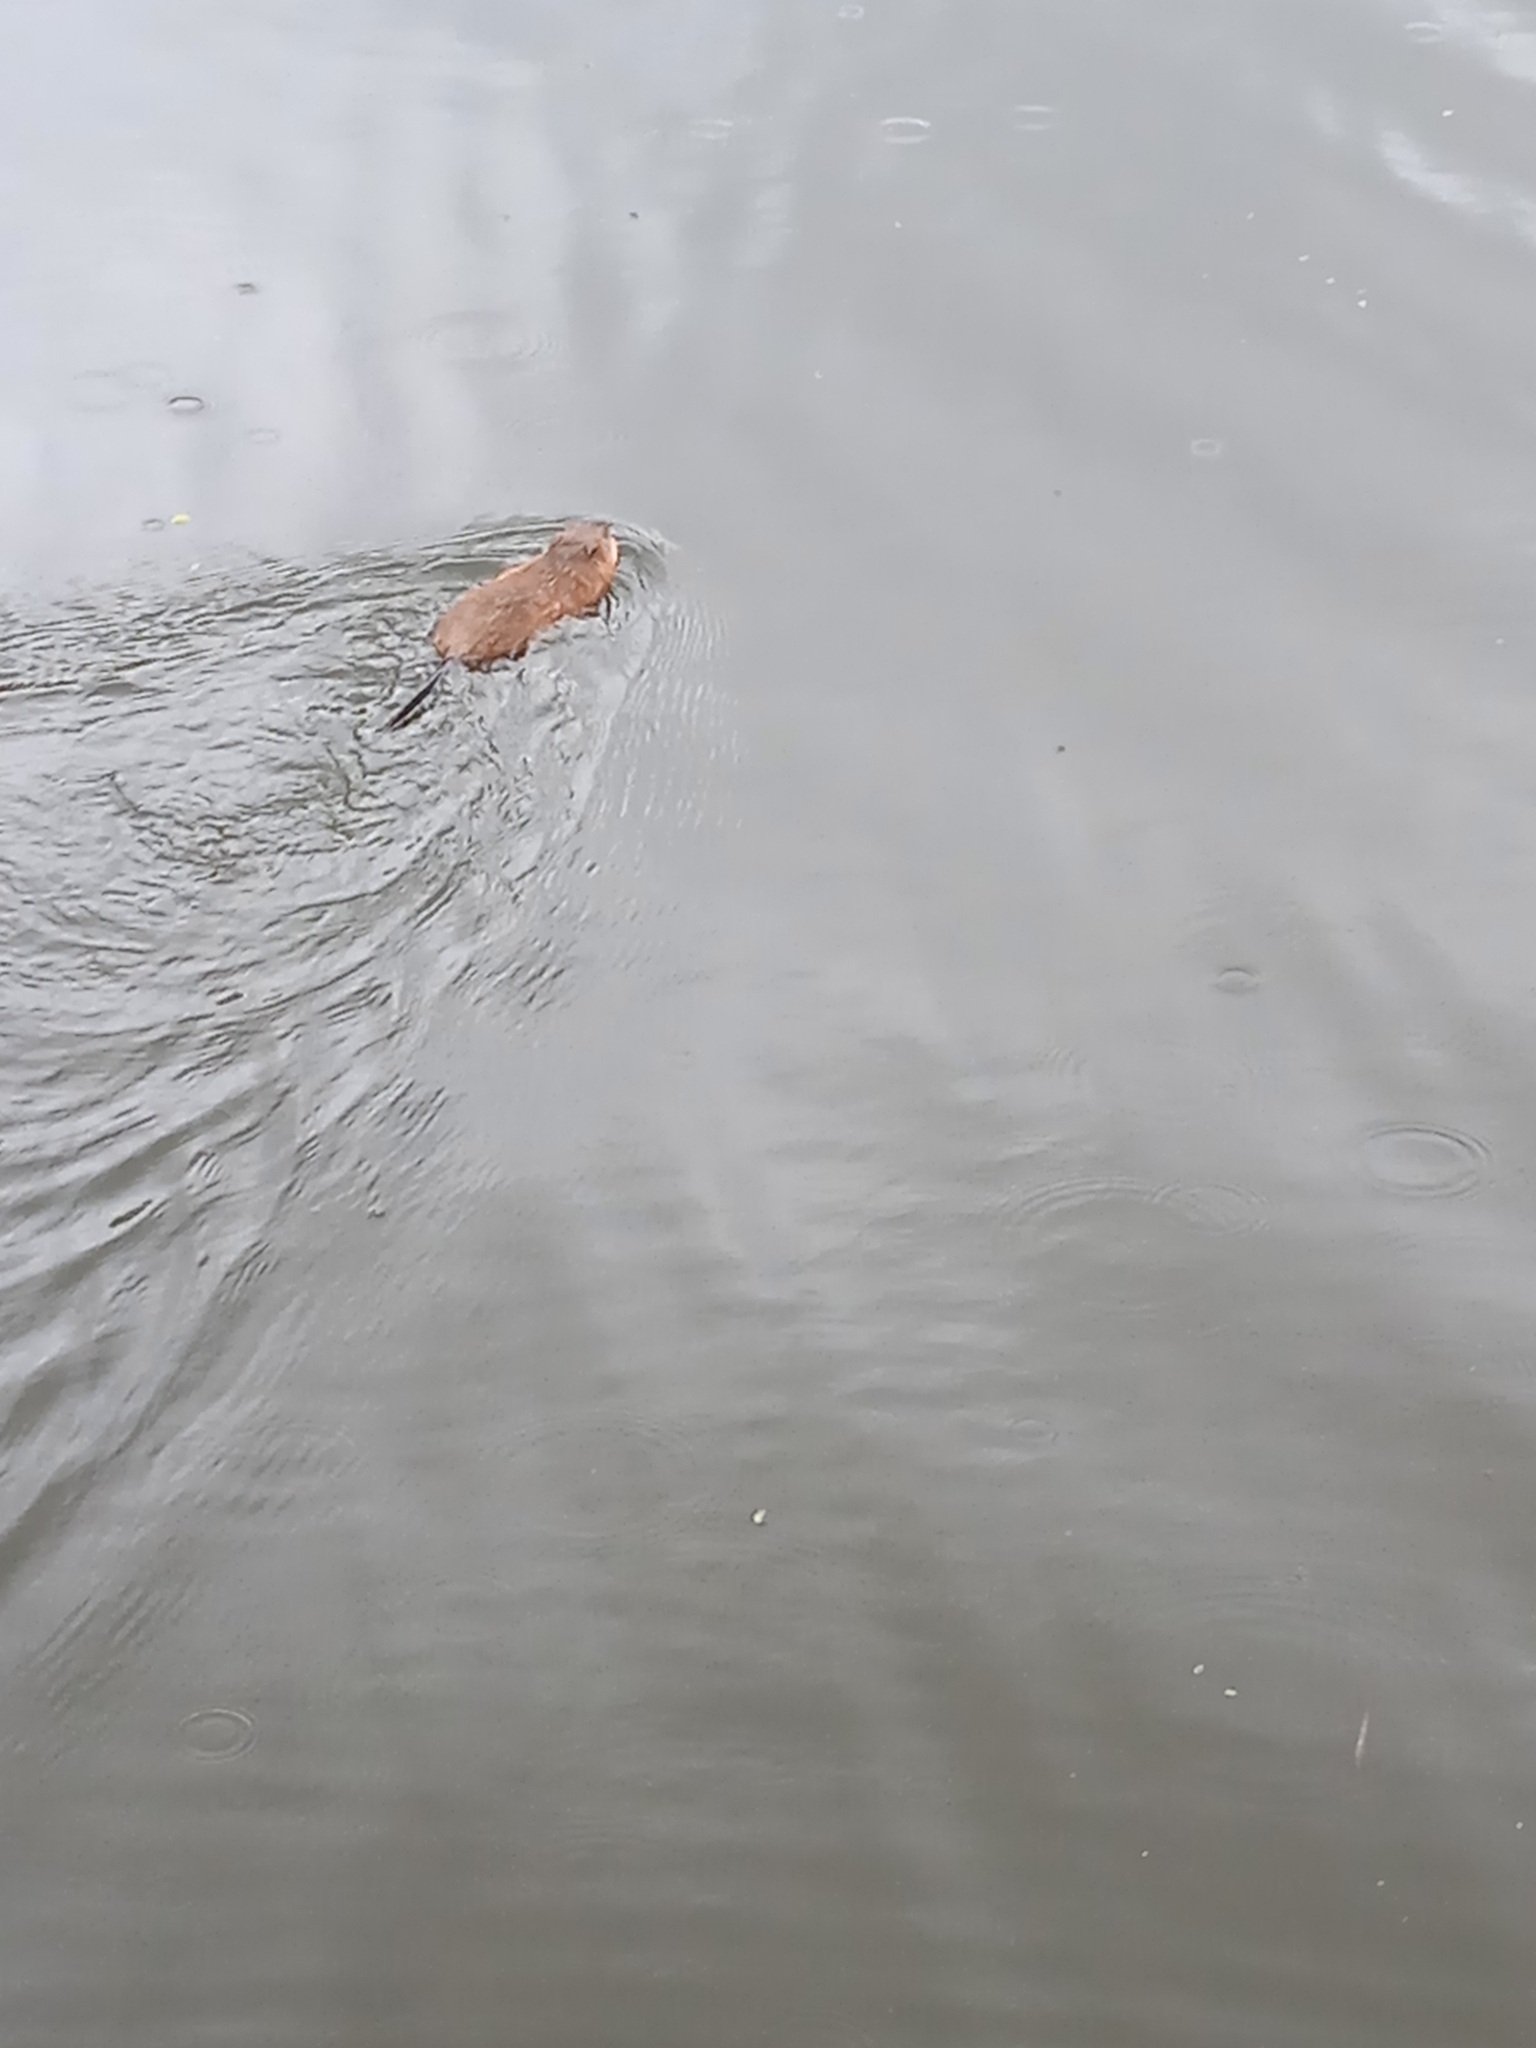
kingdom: Animalia
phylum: Chordata
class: Mammalia
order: Rodentia
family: Cricetidae
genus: Ondatra
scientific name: Ondatra zibethicus
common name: Muskrat
